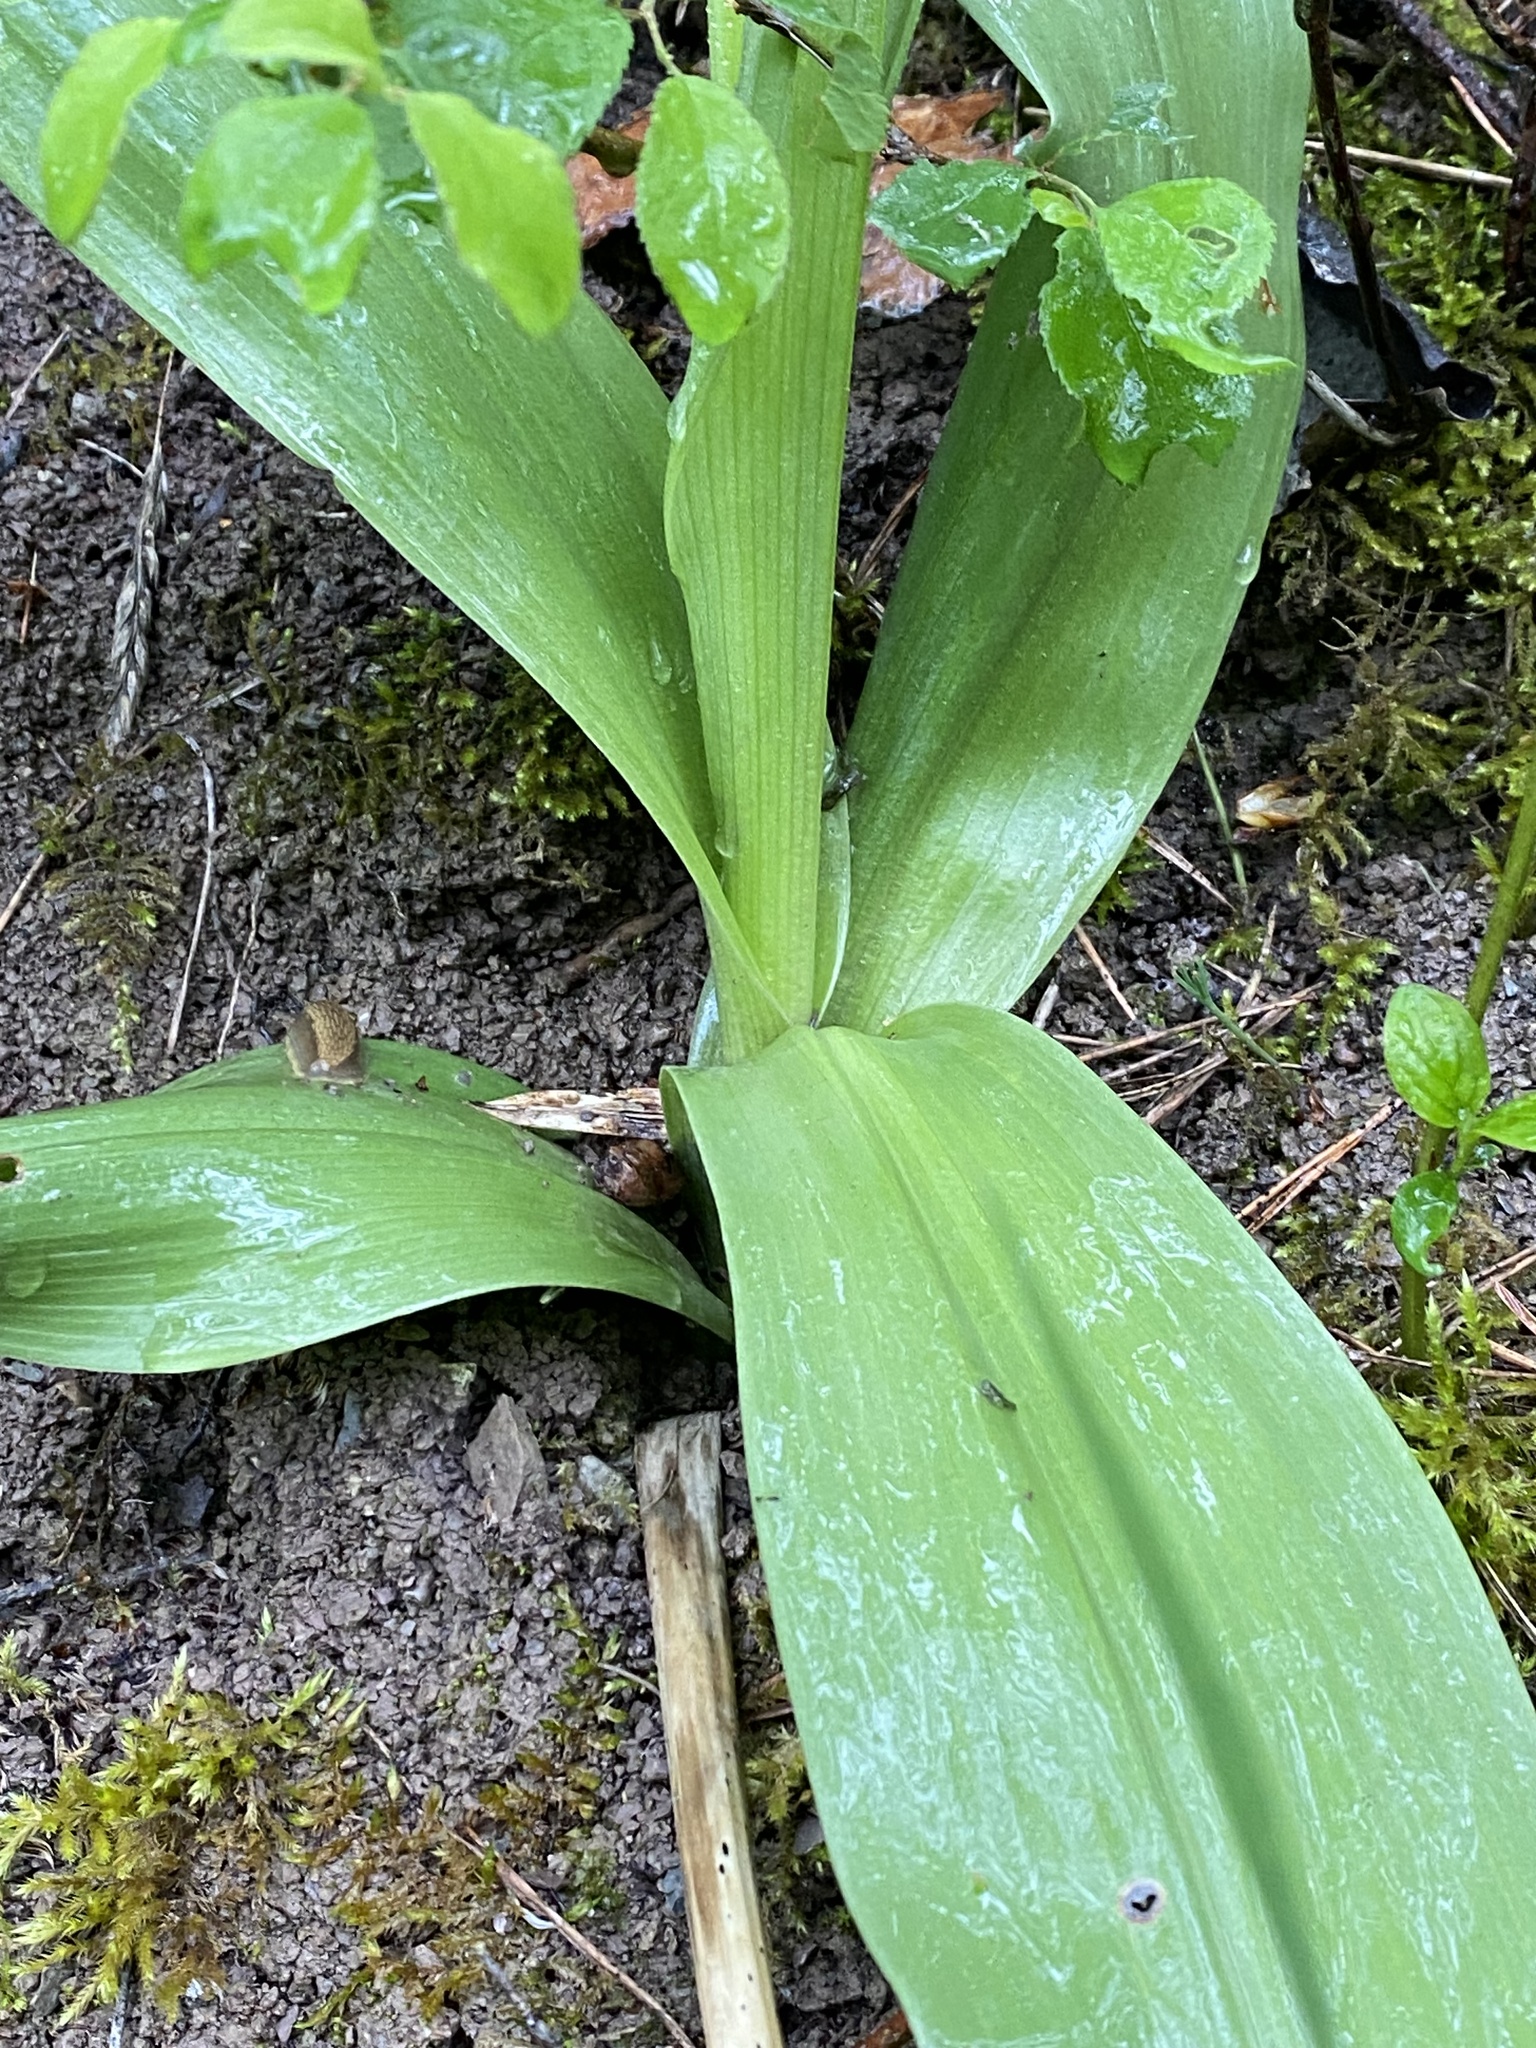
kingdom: Plantae
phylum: Tracheophyta
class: Liliopsida
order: Asparagales
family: Orchidaceae
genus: Orchis
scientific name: Orchis purpurea
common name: Lady orchid
